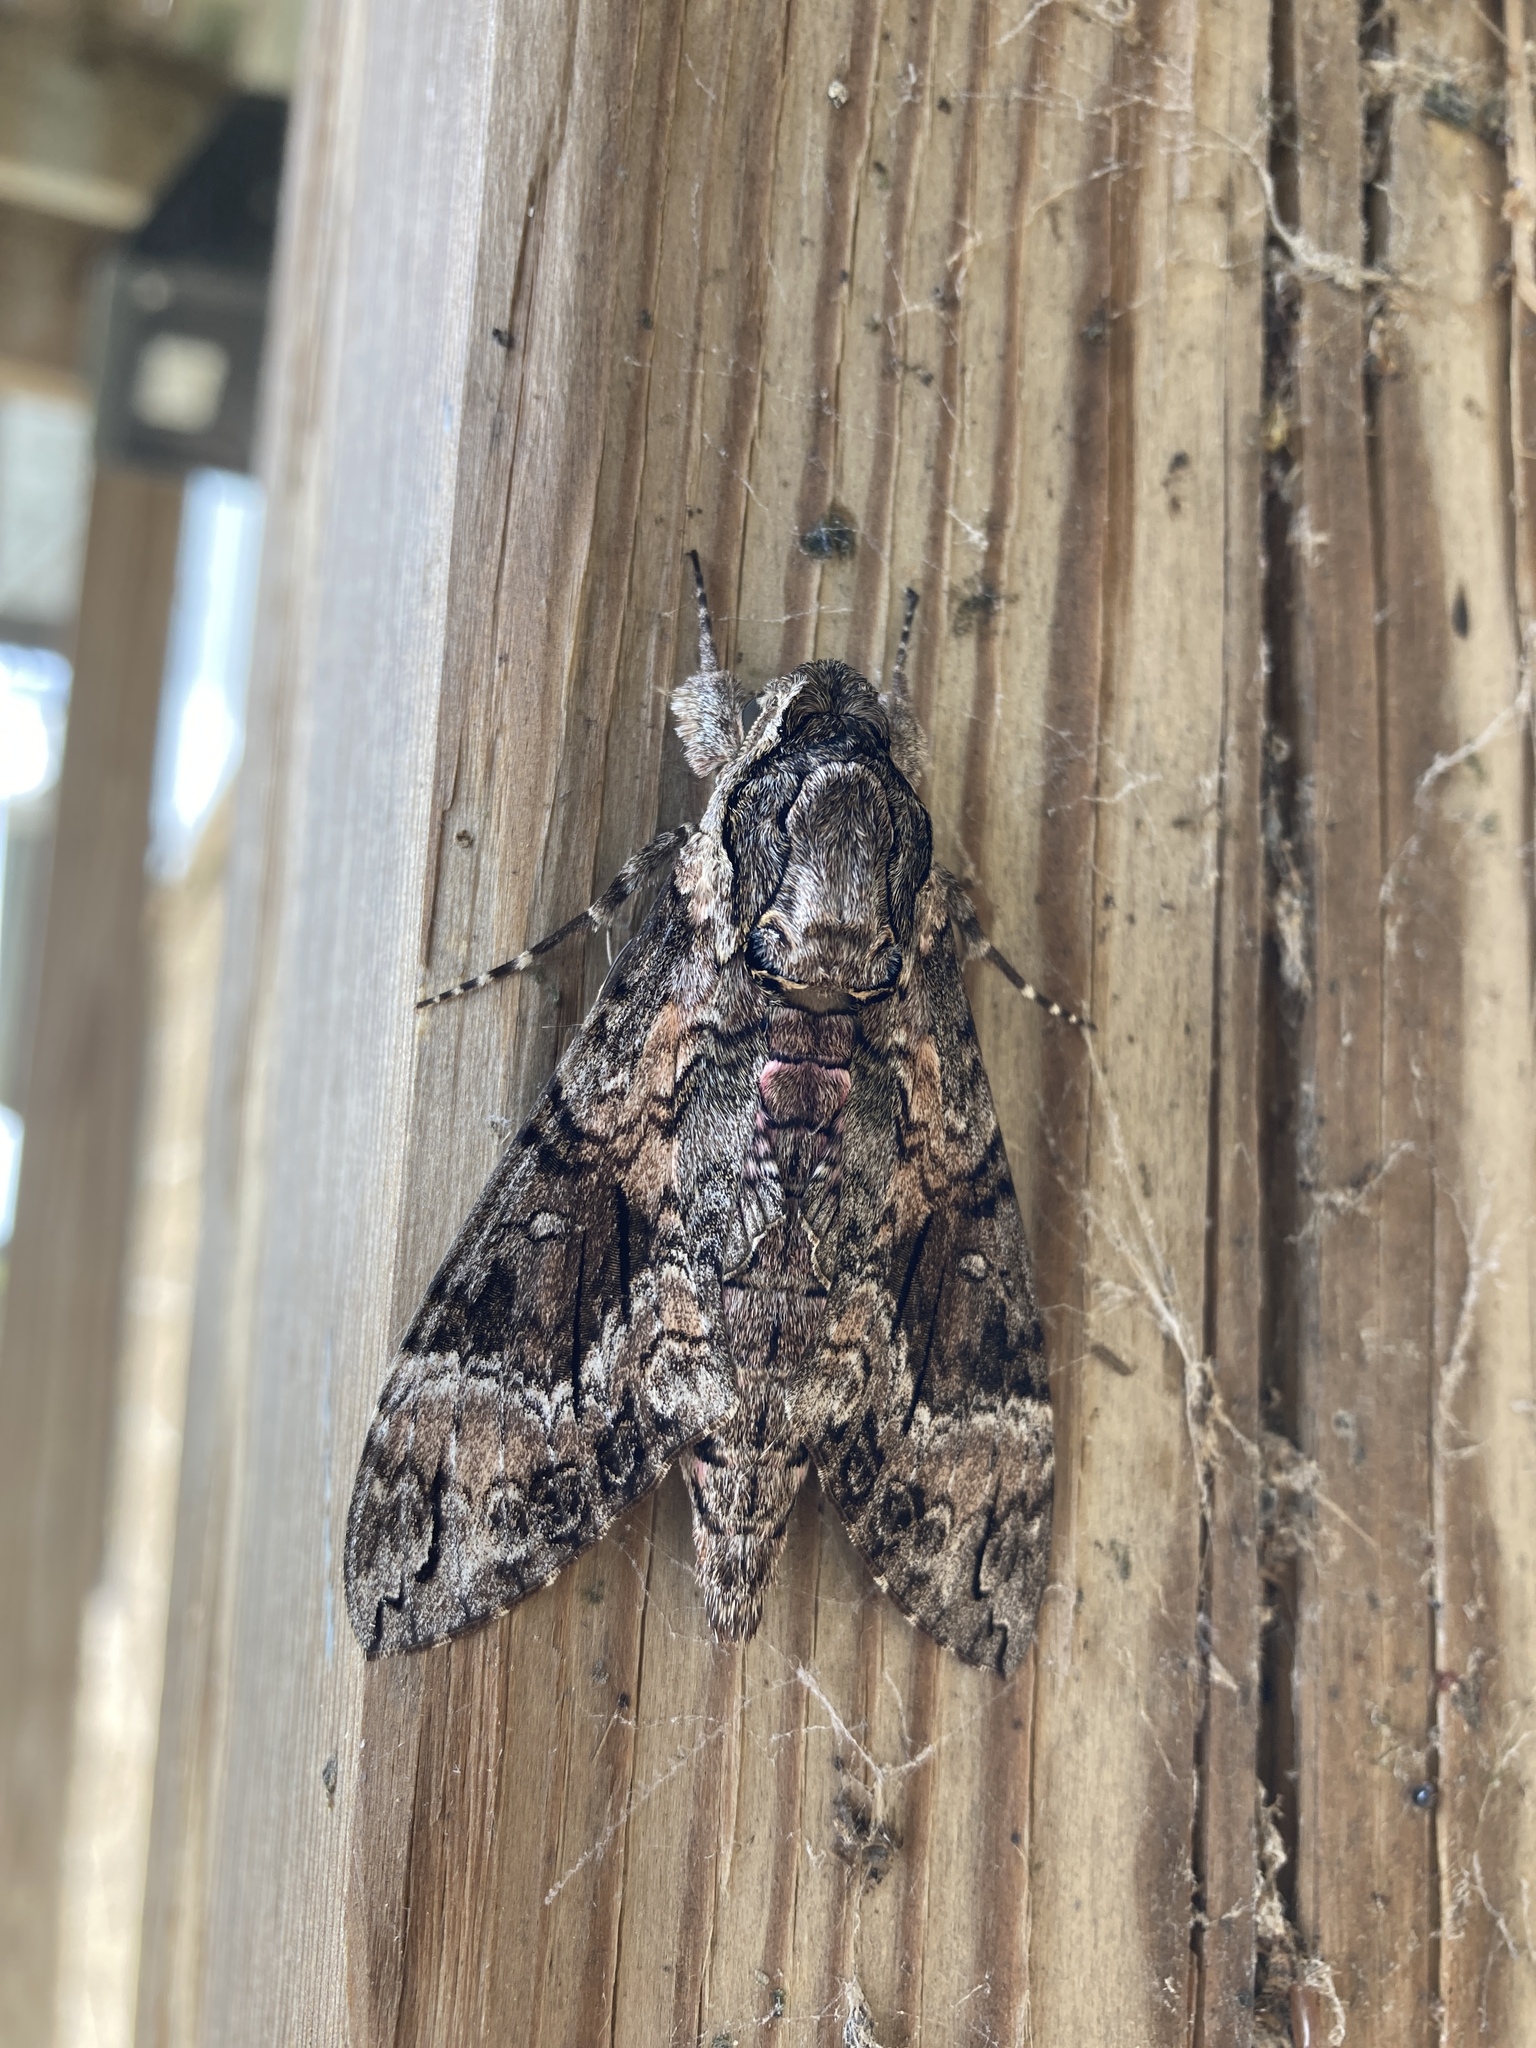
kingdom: Animalia
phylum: Arthropoda
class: Insecta
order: Lepidoptera
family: Sphingidae
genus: Agrius
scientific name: Agrius cingulata
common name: Pink-spotted hawkmoth
